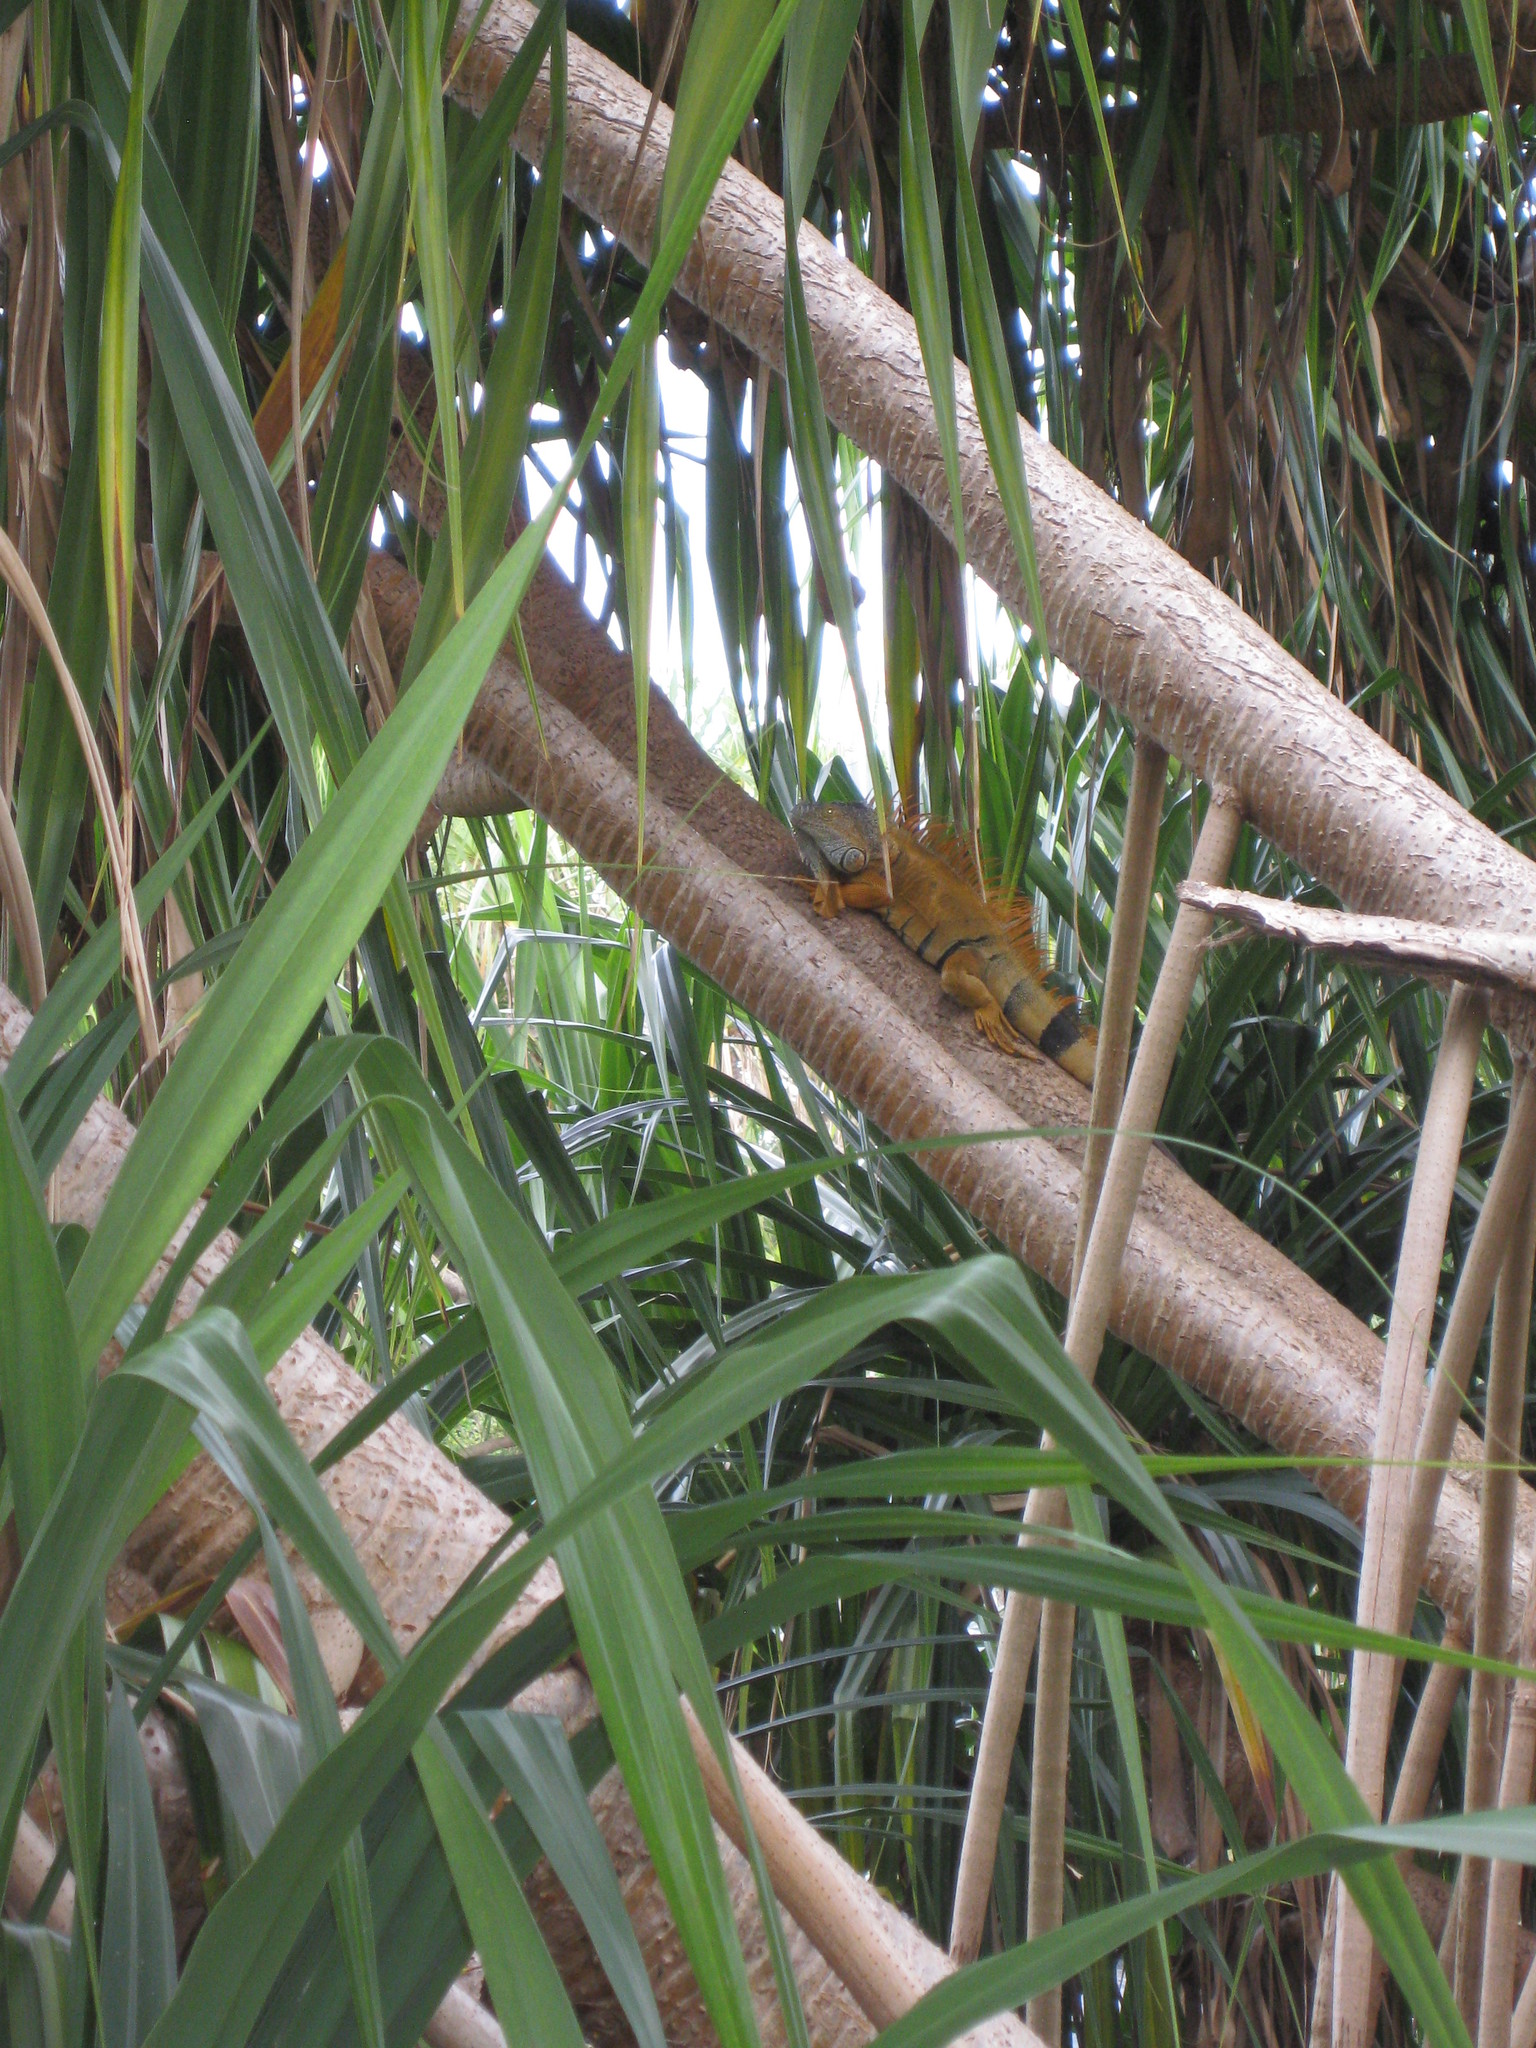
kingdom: Animalia
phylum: Chordata
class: Squamata
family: Iguanidae
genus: Iguana
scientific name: Iguana iguana
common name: Green iguana
